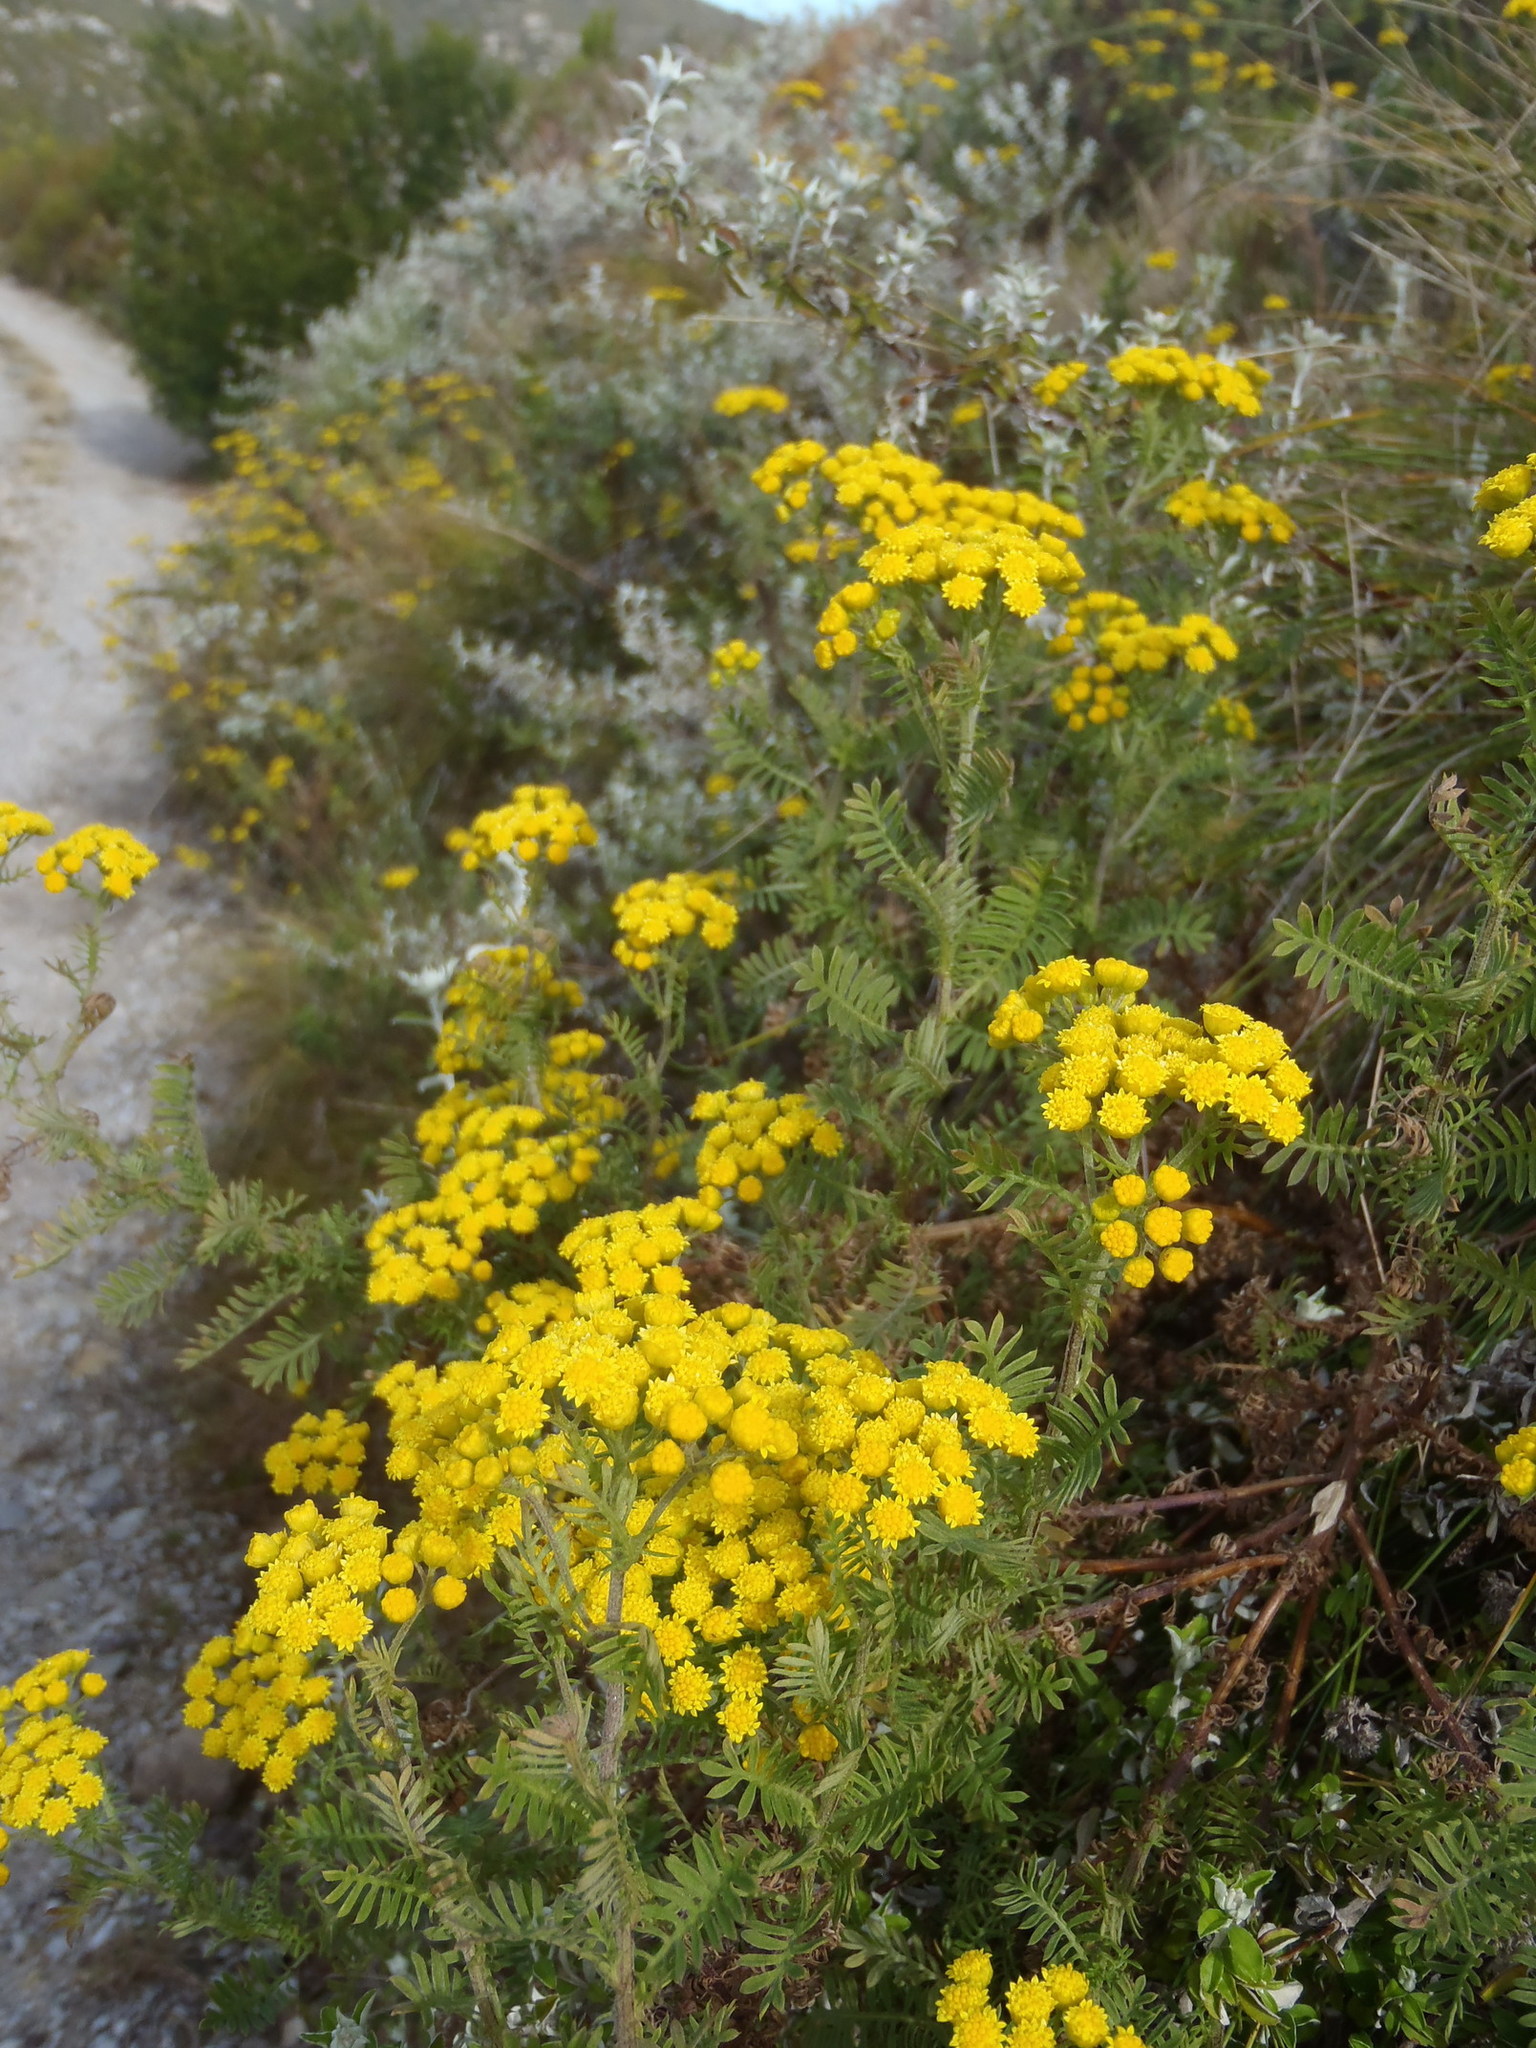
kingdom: Plantae
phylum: Tracheophyta
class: Magnoliopsida
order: Asterales
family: Asteraceae
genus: Hippia
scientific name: Hippia frutescens
